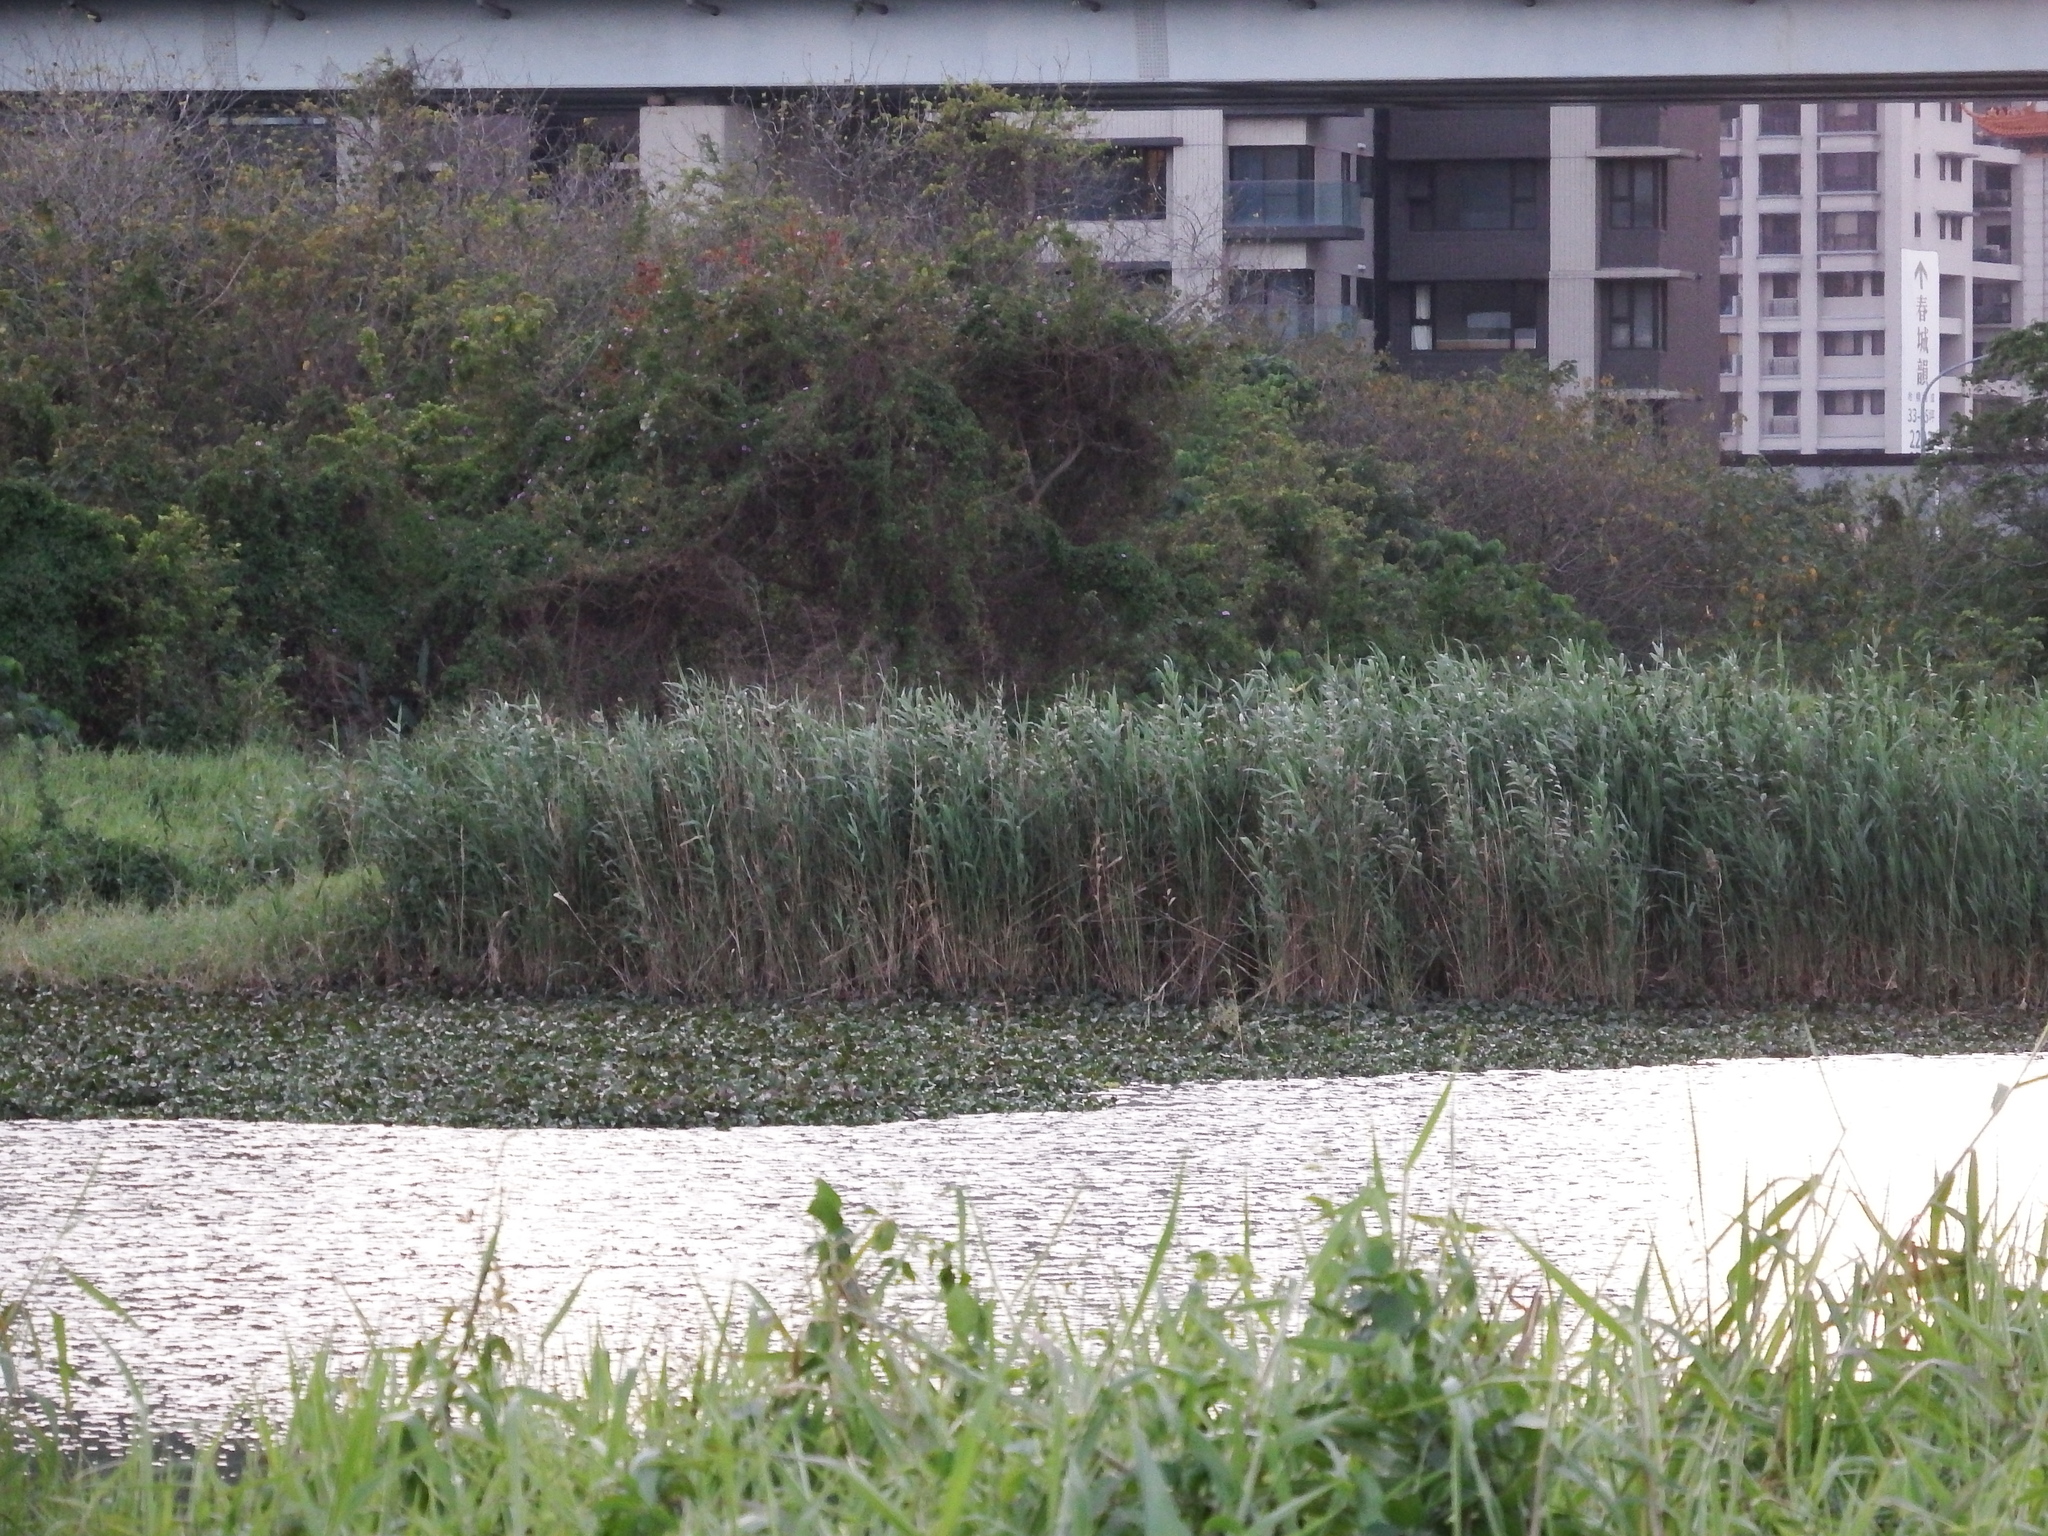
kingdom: Plantae
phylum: Tracheophyta
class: Liliopsida
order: Poales
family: Poaceae
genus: Phragmites
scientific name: Phragmites australis
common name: Common reed
